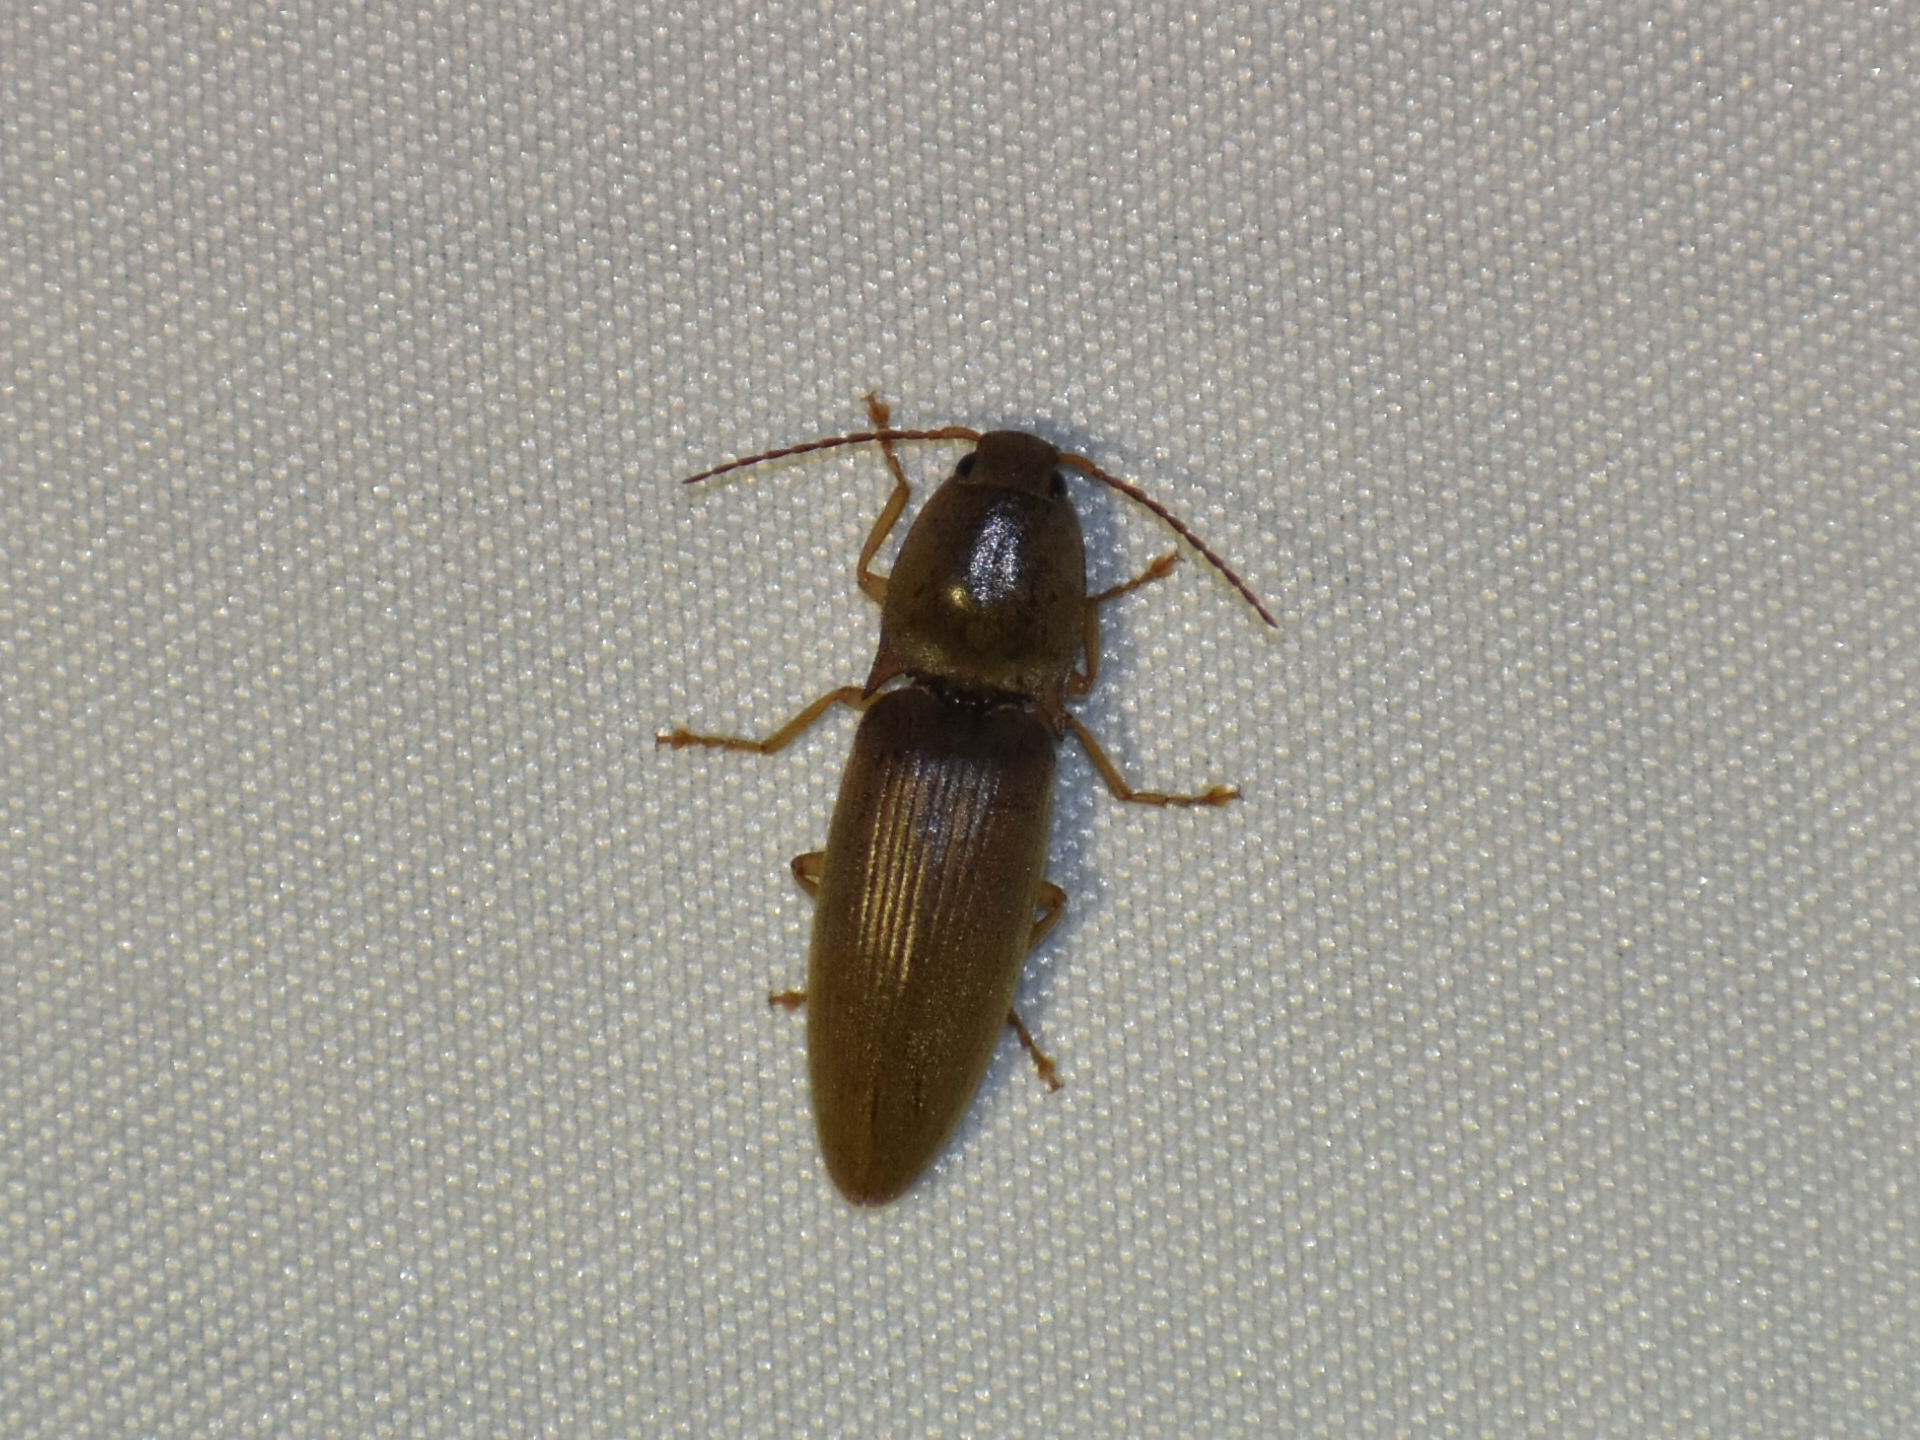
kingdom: Animalia
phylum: Arthropoda
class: Insecta
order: Coleoptera
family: Elateridae
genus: Monocrepidius
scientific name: Monocrepidius lividus
